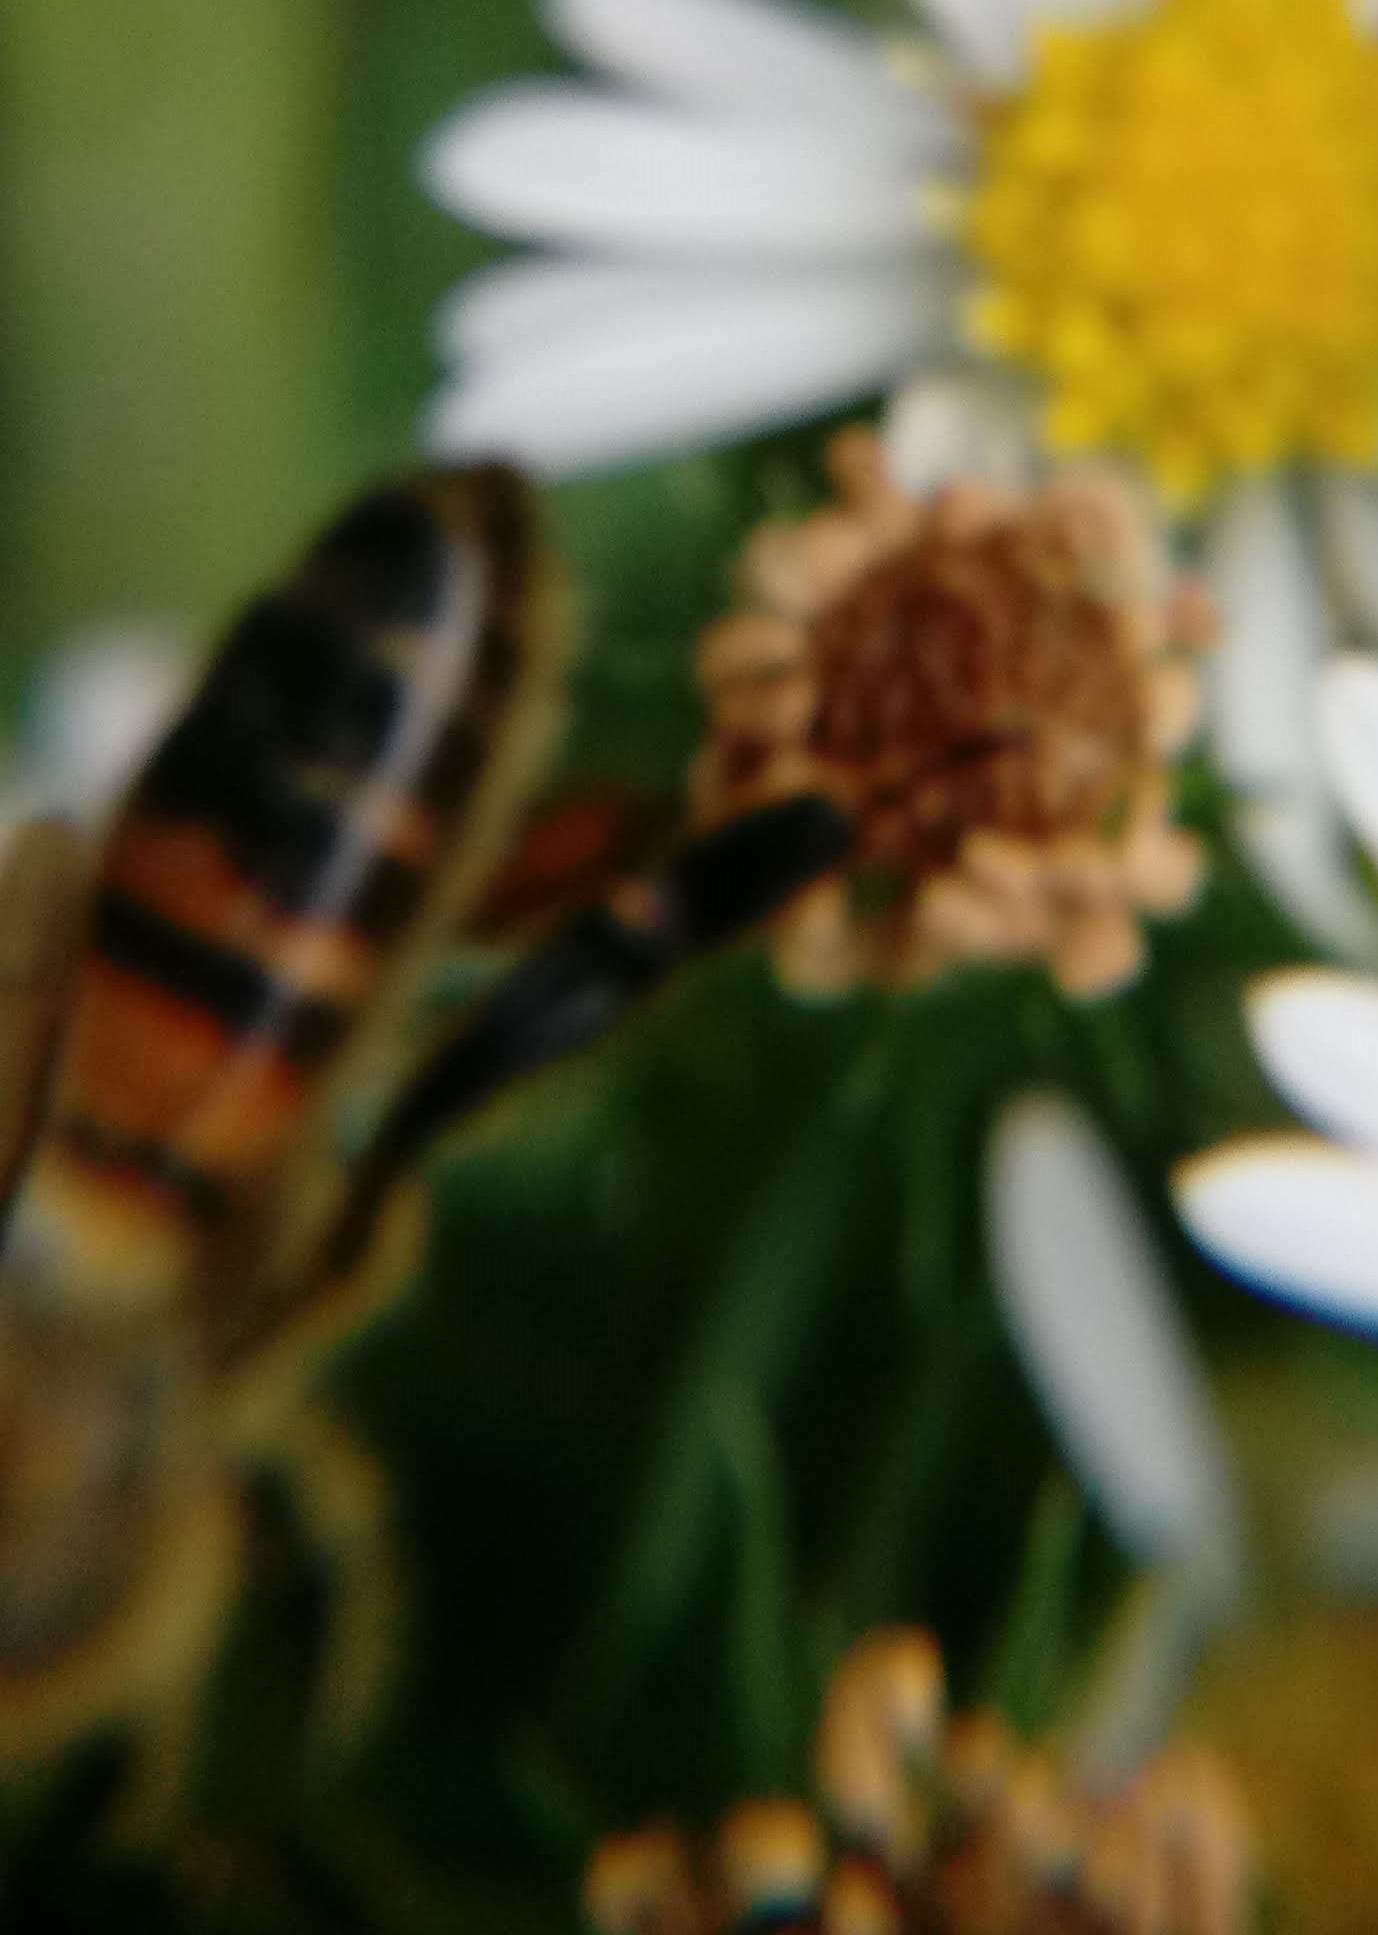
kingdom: Animalia
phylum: Arthropoda
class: Insecta
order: Hymenoptera
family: Apidae
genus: Apis
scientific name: Apis mellifera
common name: Honey bee
